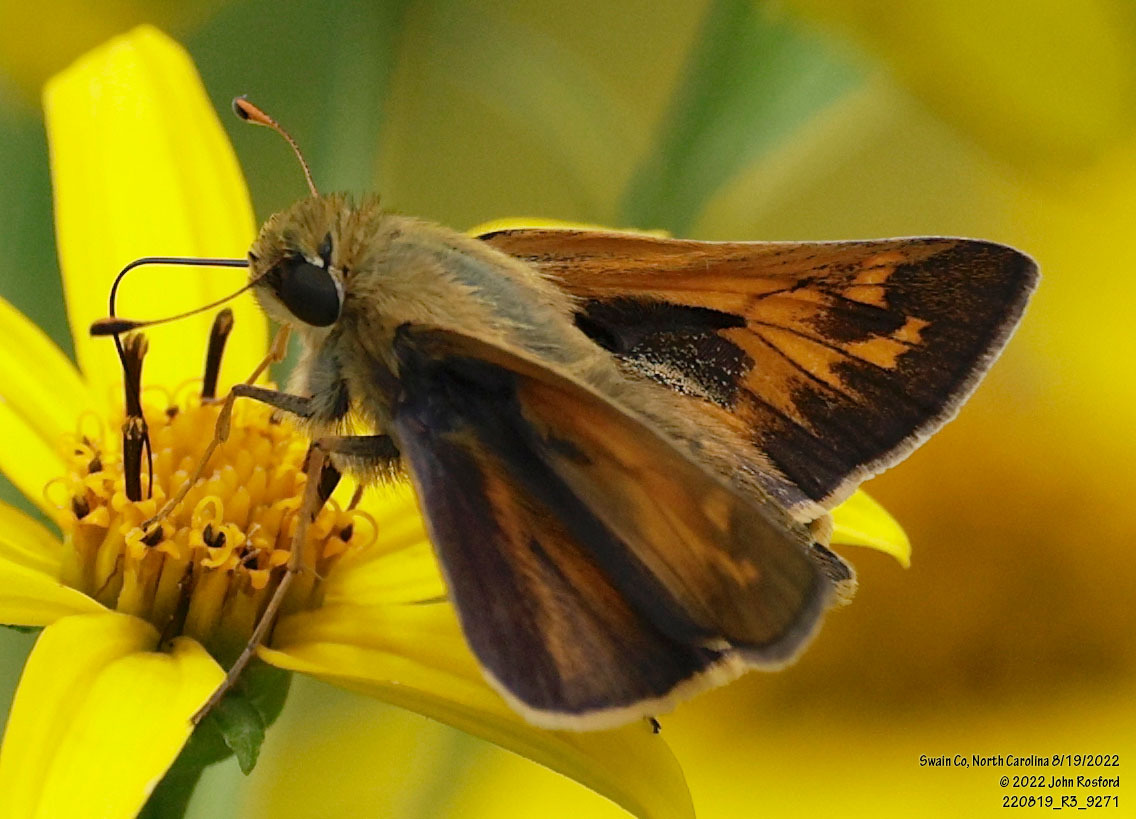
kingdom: Animalia
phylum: Arthropoda
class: Insecta
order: Lepidoptera
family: Hesperiidae
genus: Atalopedes
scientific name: Atalopedes
